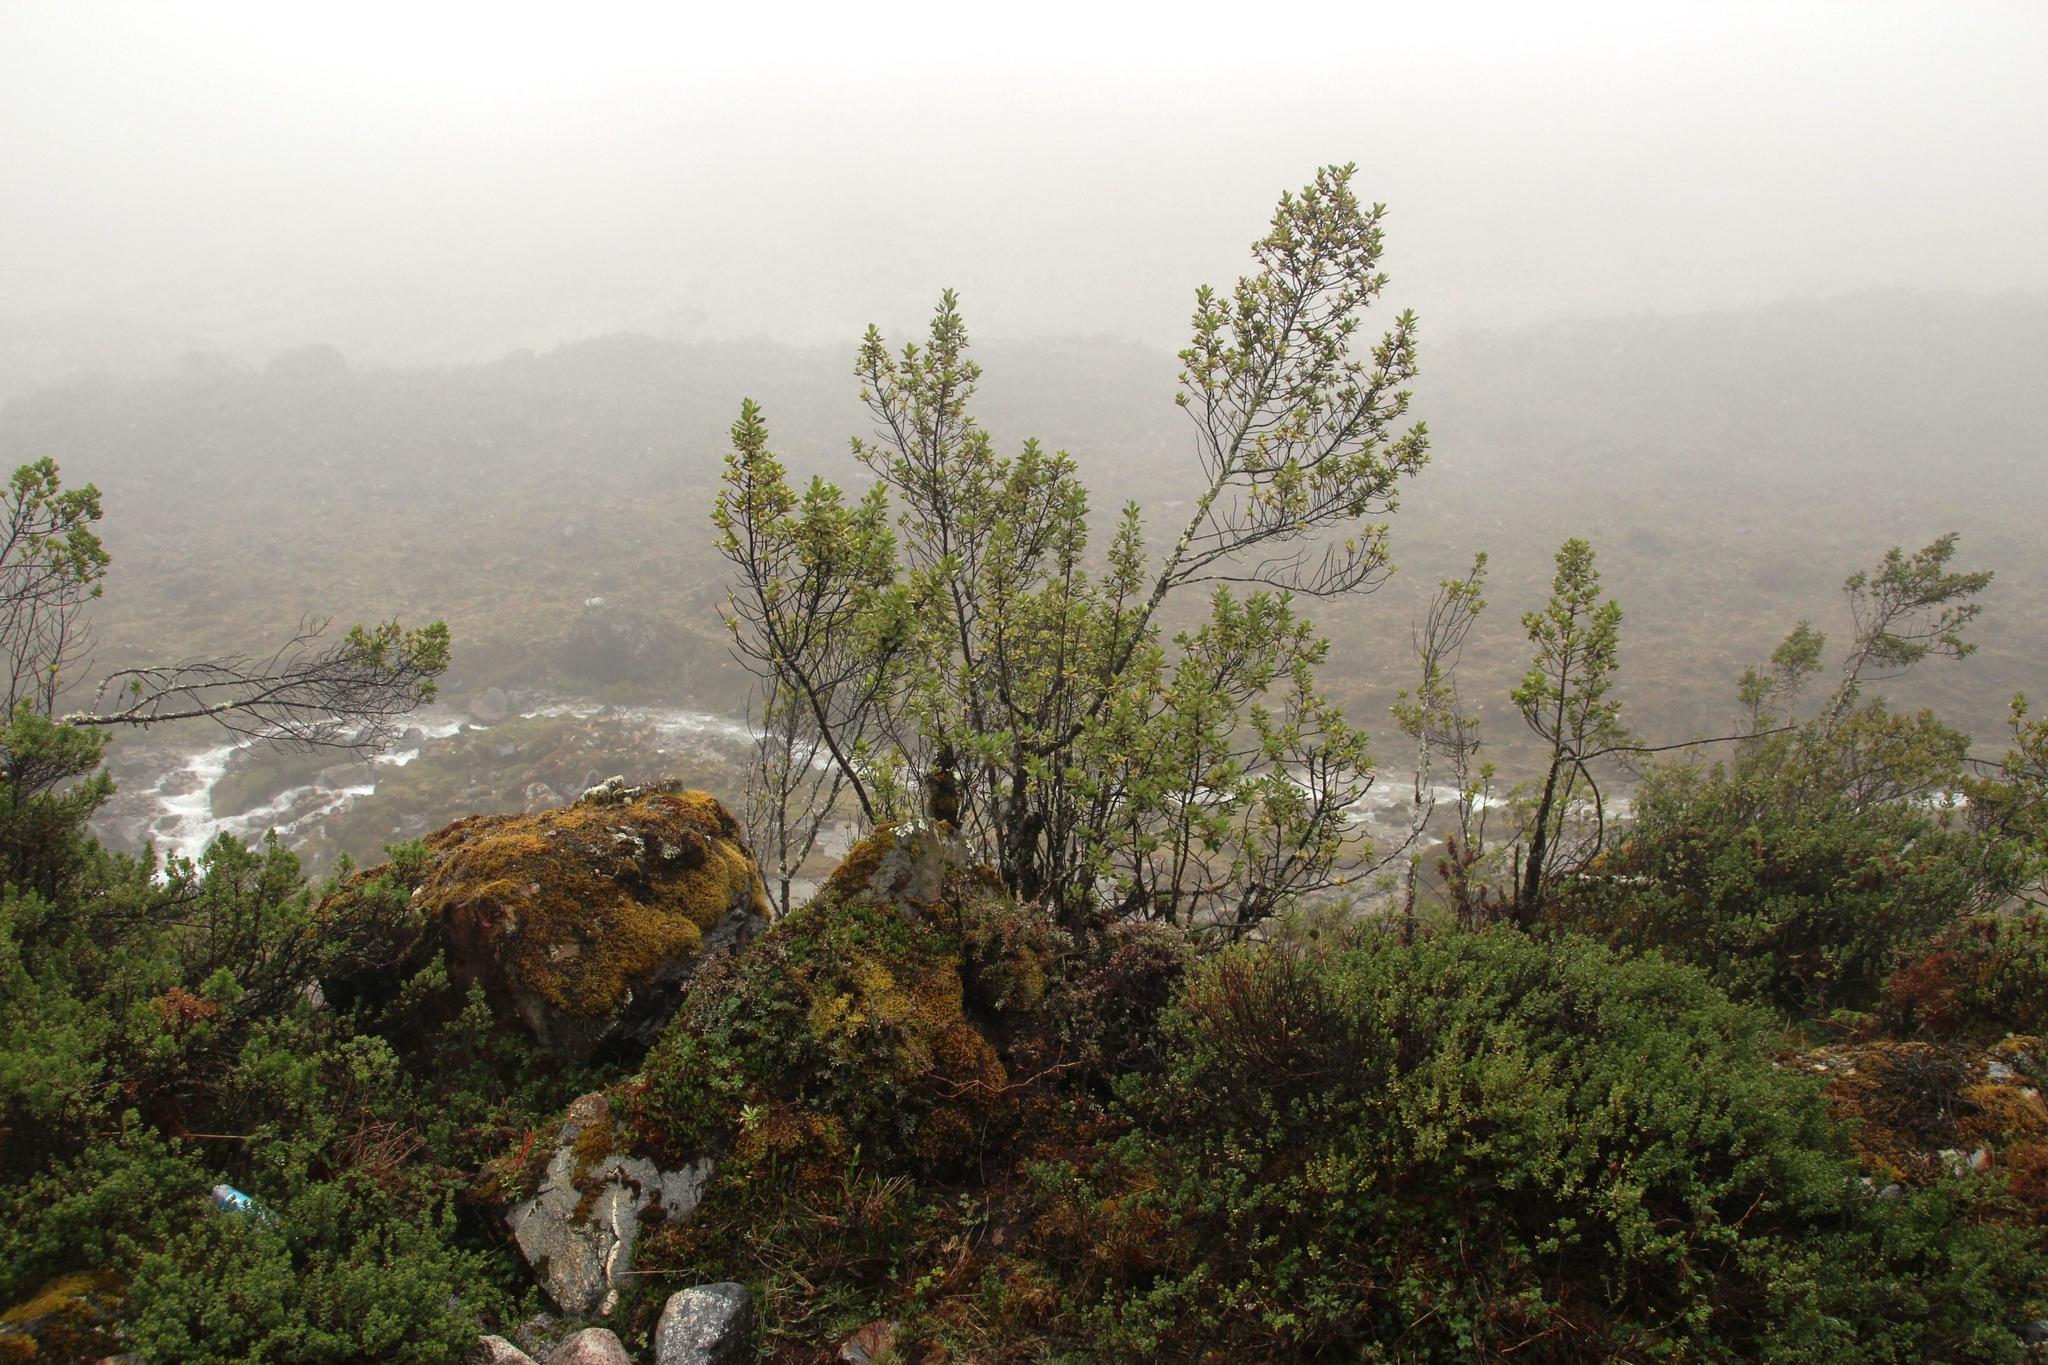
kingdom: Plantae
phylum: Tracheophyta
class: Magnoliopsida
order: Ericales
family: Primulaceae
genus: Myrsine
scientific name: Myrsine latifolia
